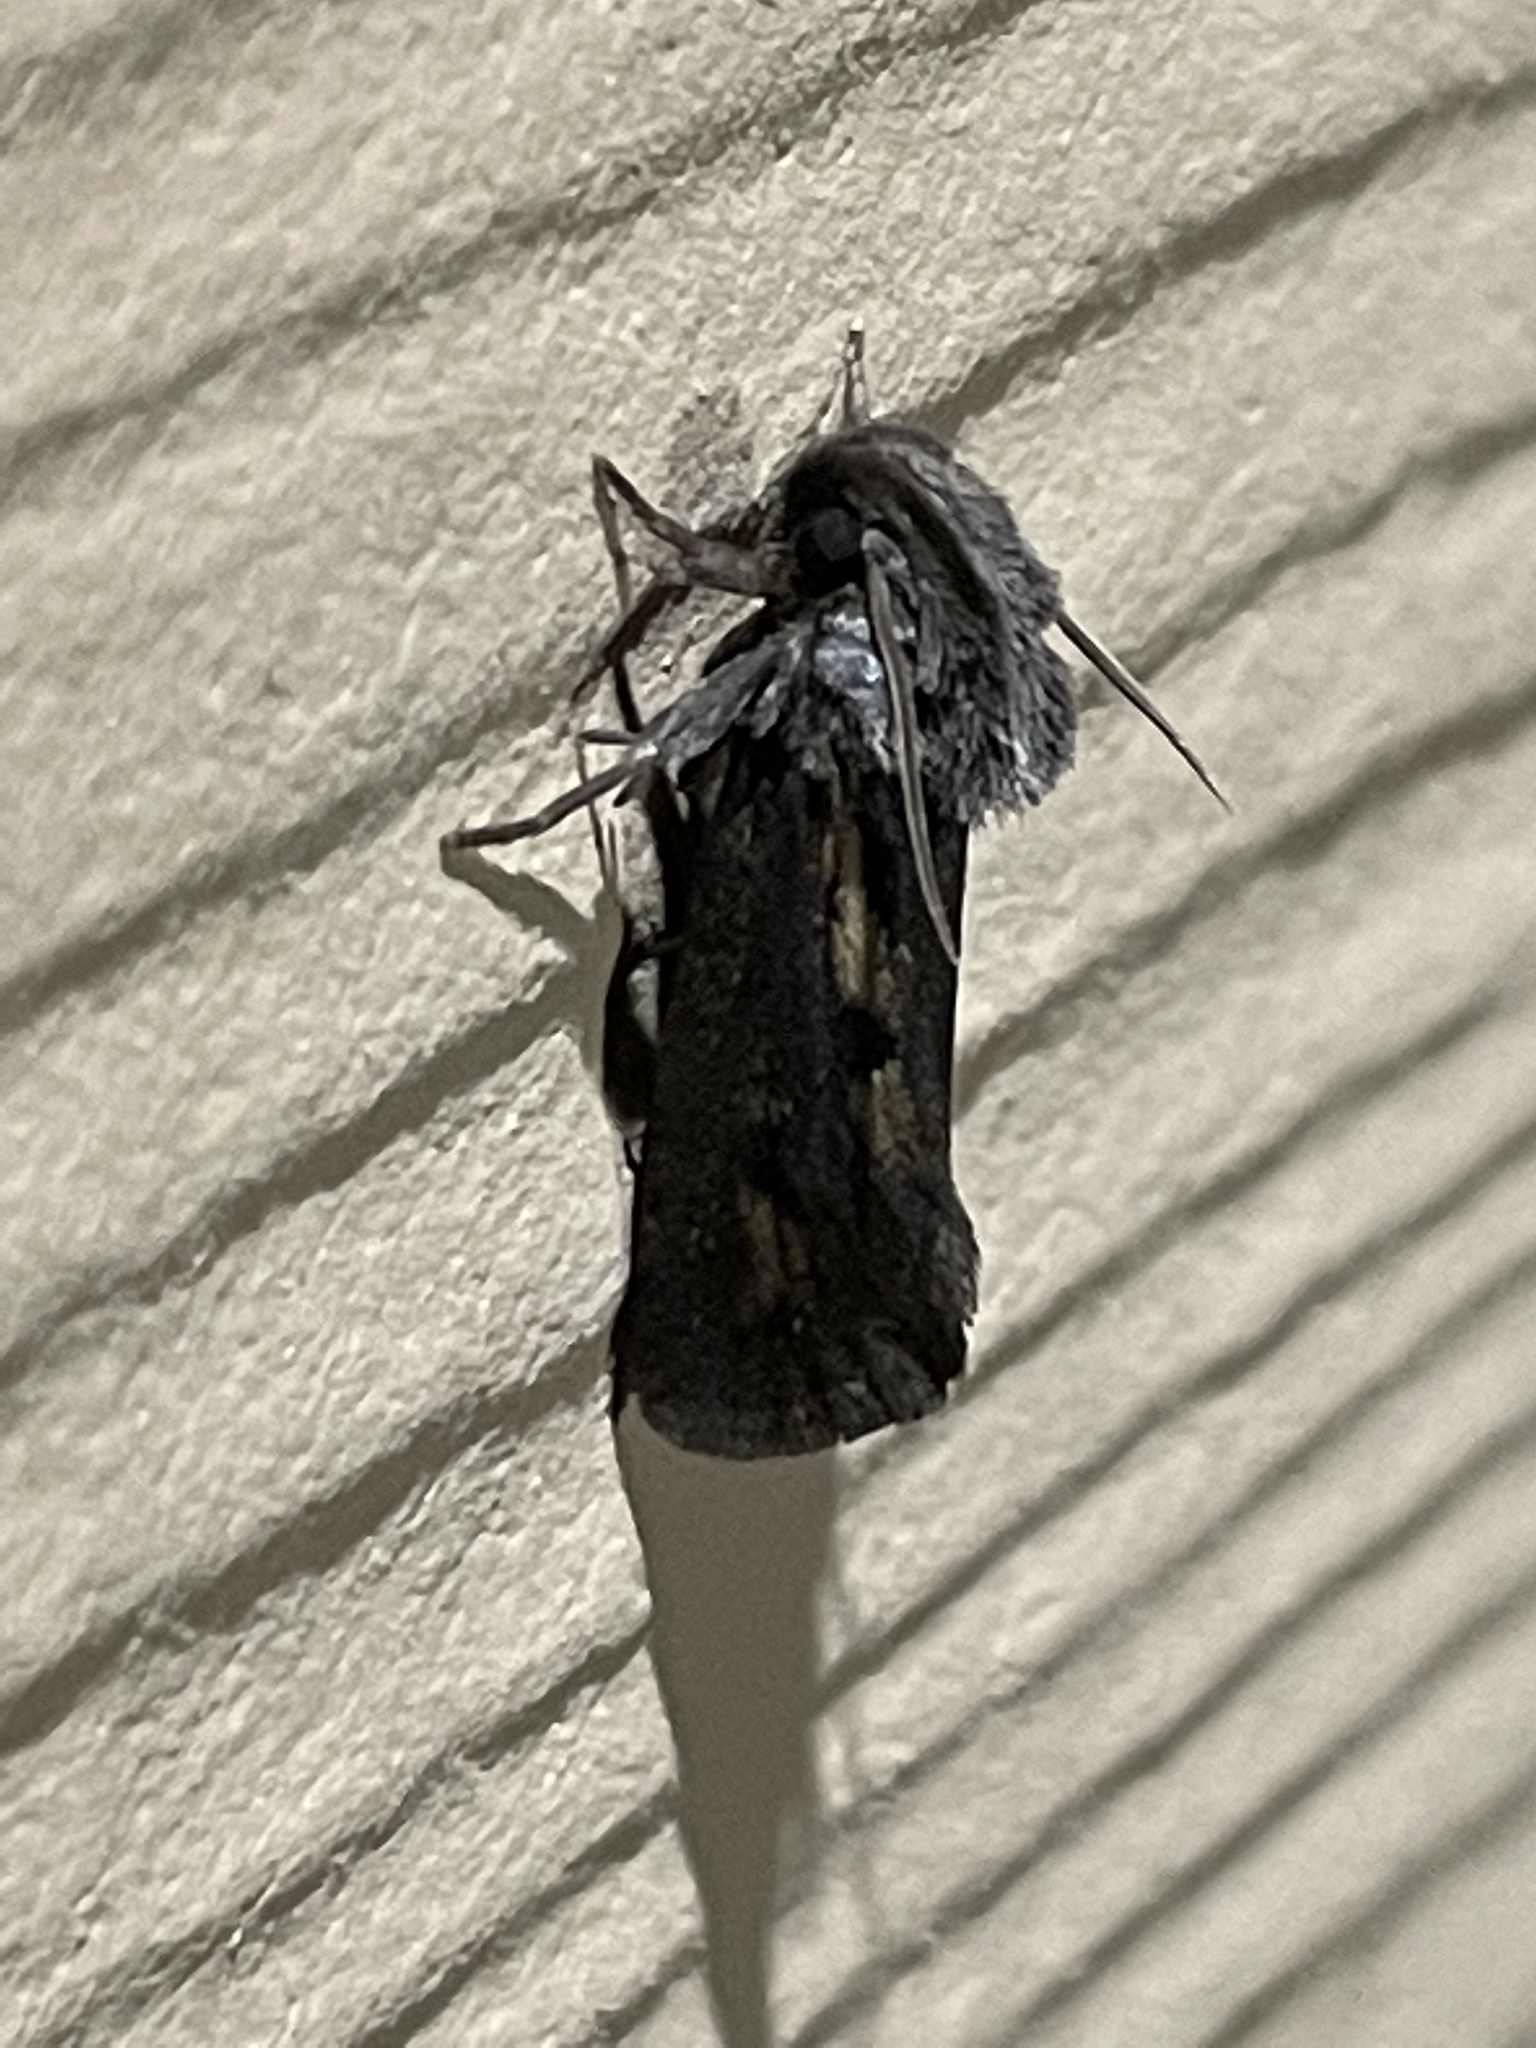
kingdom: Animalia
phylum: Arthropoda
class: Insecta
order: Lepidoptera
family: Tineidae
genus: Acrolophus
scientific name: Acrolophus popeanella
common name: Clemens' grass tubeworm moth
